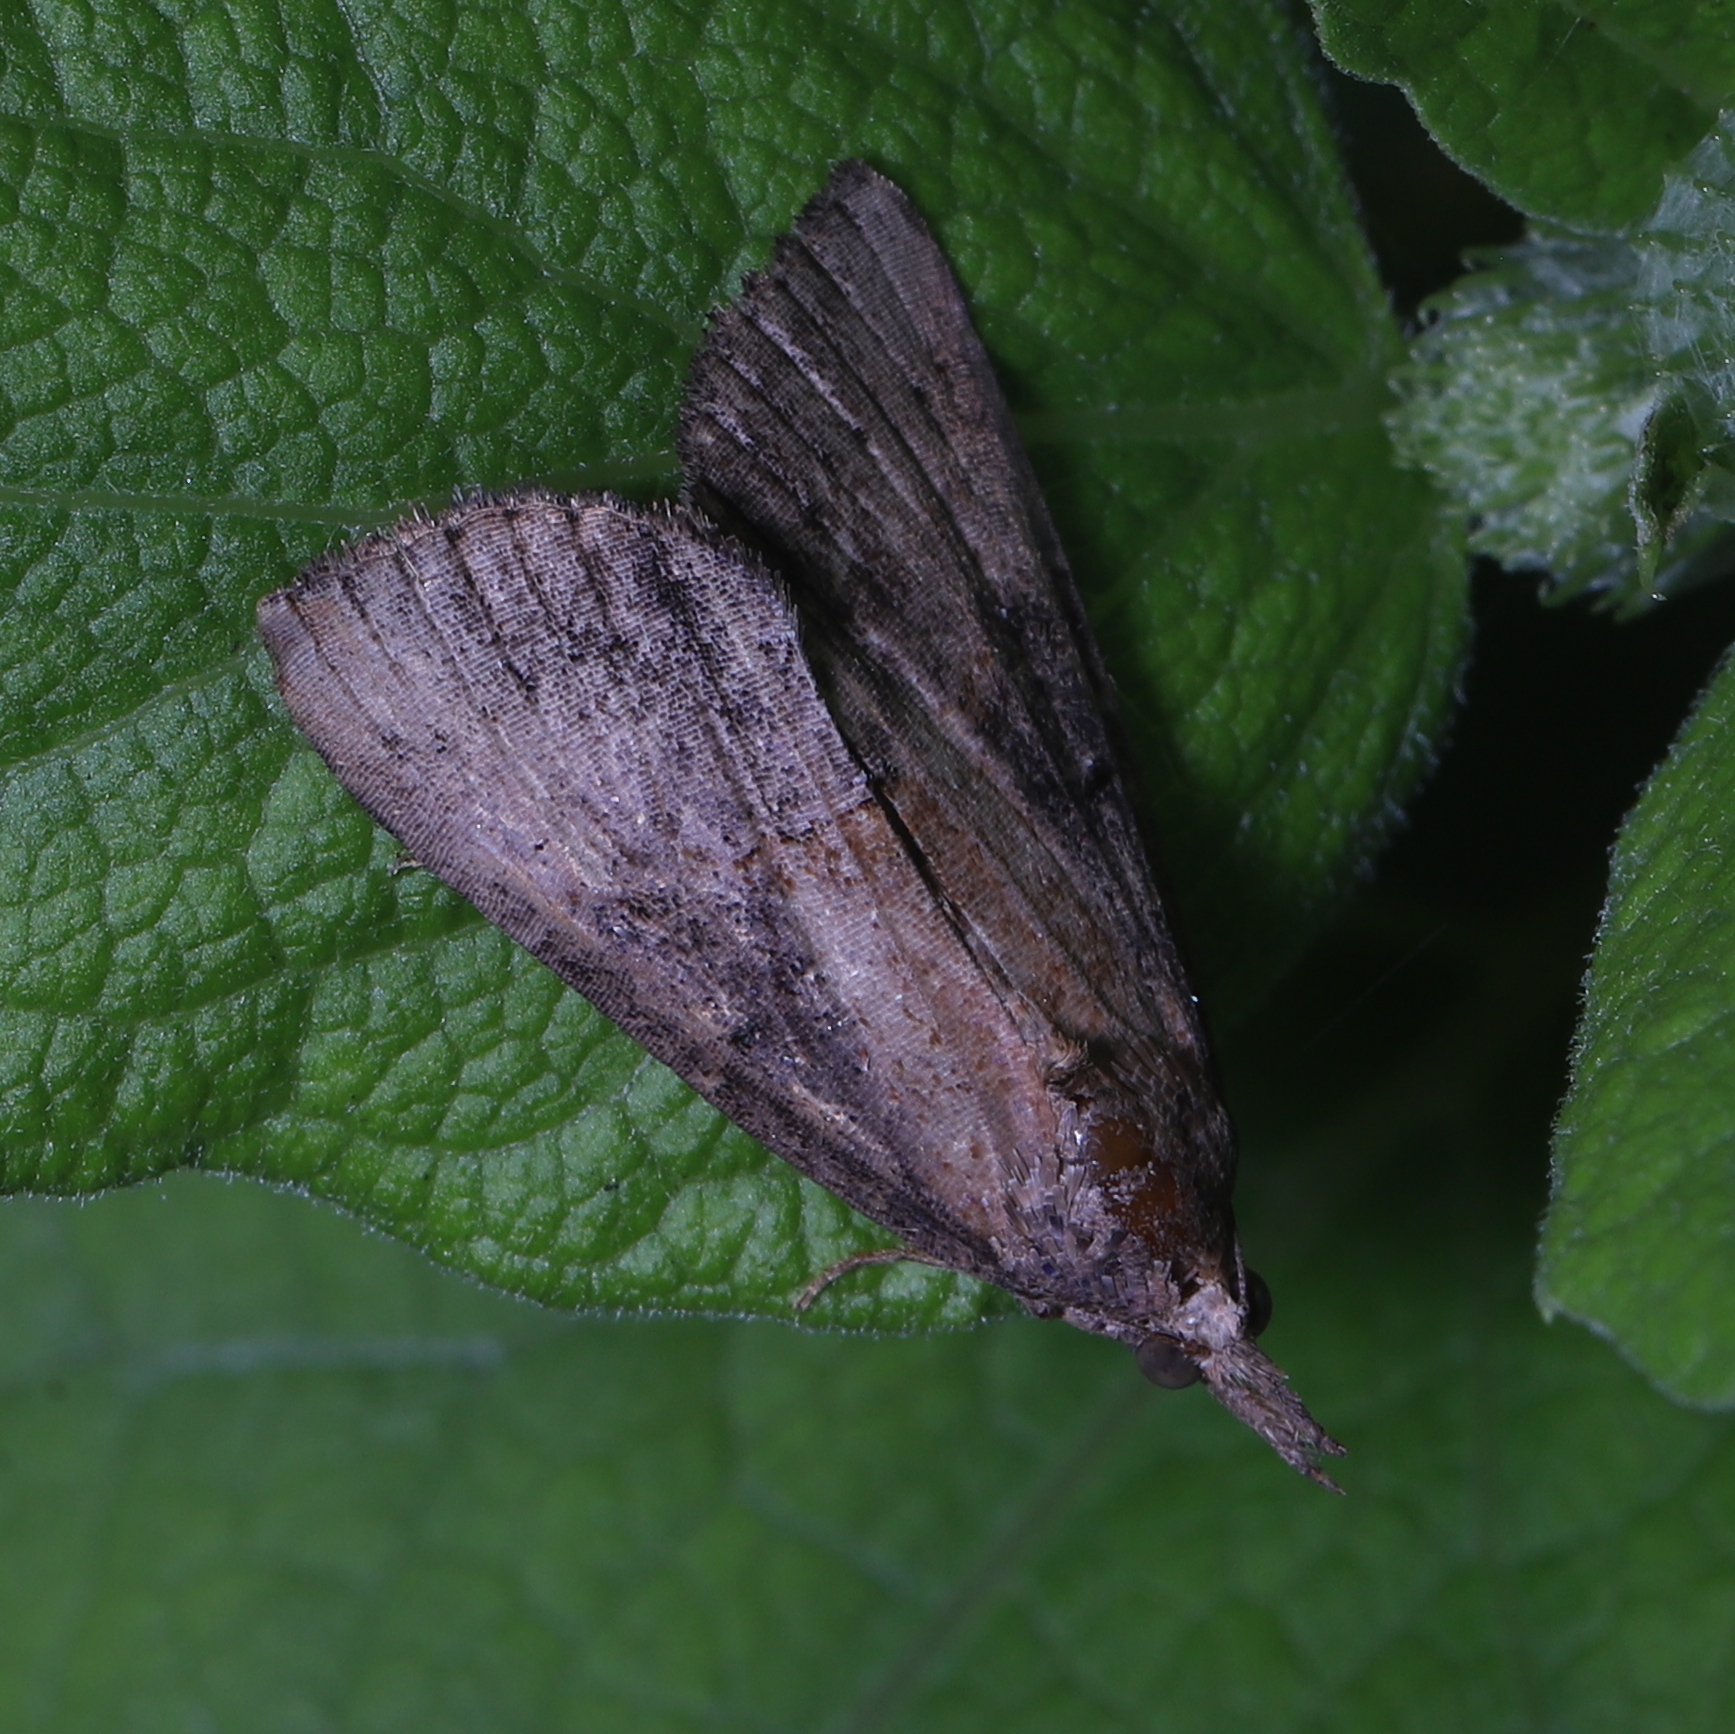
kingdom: Animalia
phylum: Arthropoda
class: Insecta
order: Lepidoptera
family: Erebidae
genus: Hypena
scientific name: Hypena scabra
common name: Green cloverworm
